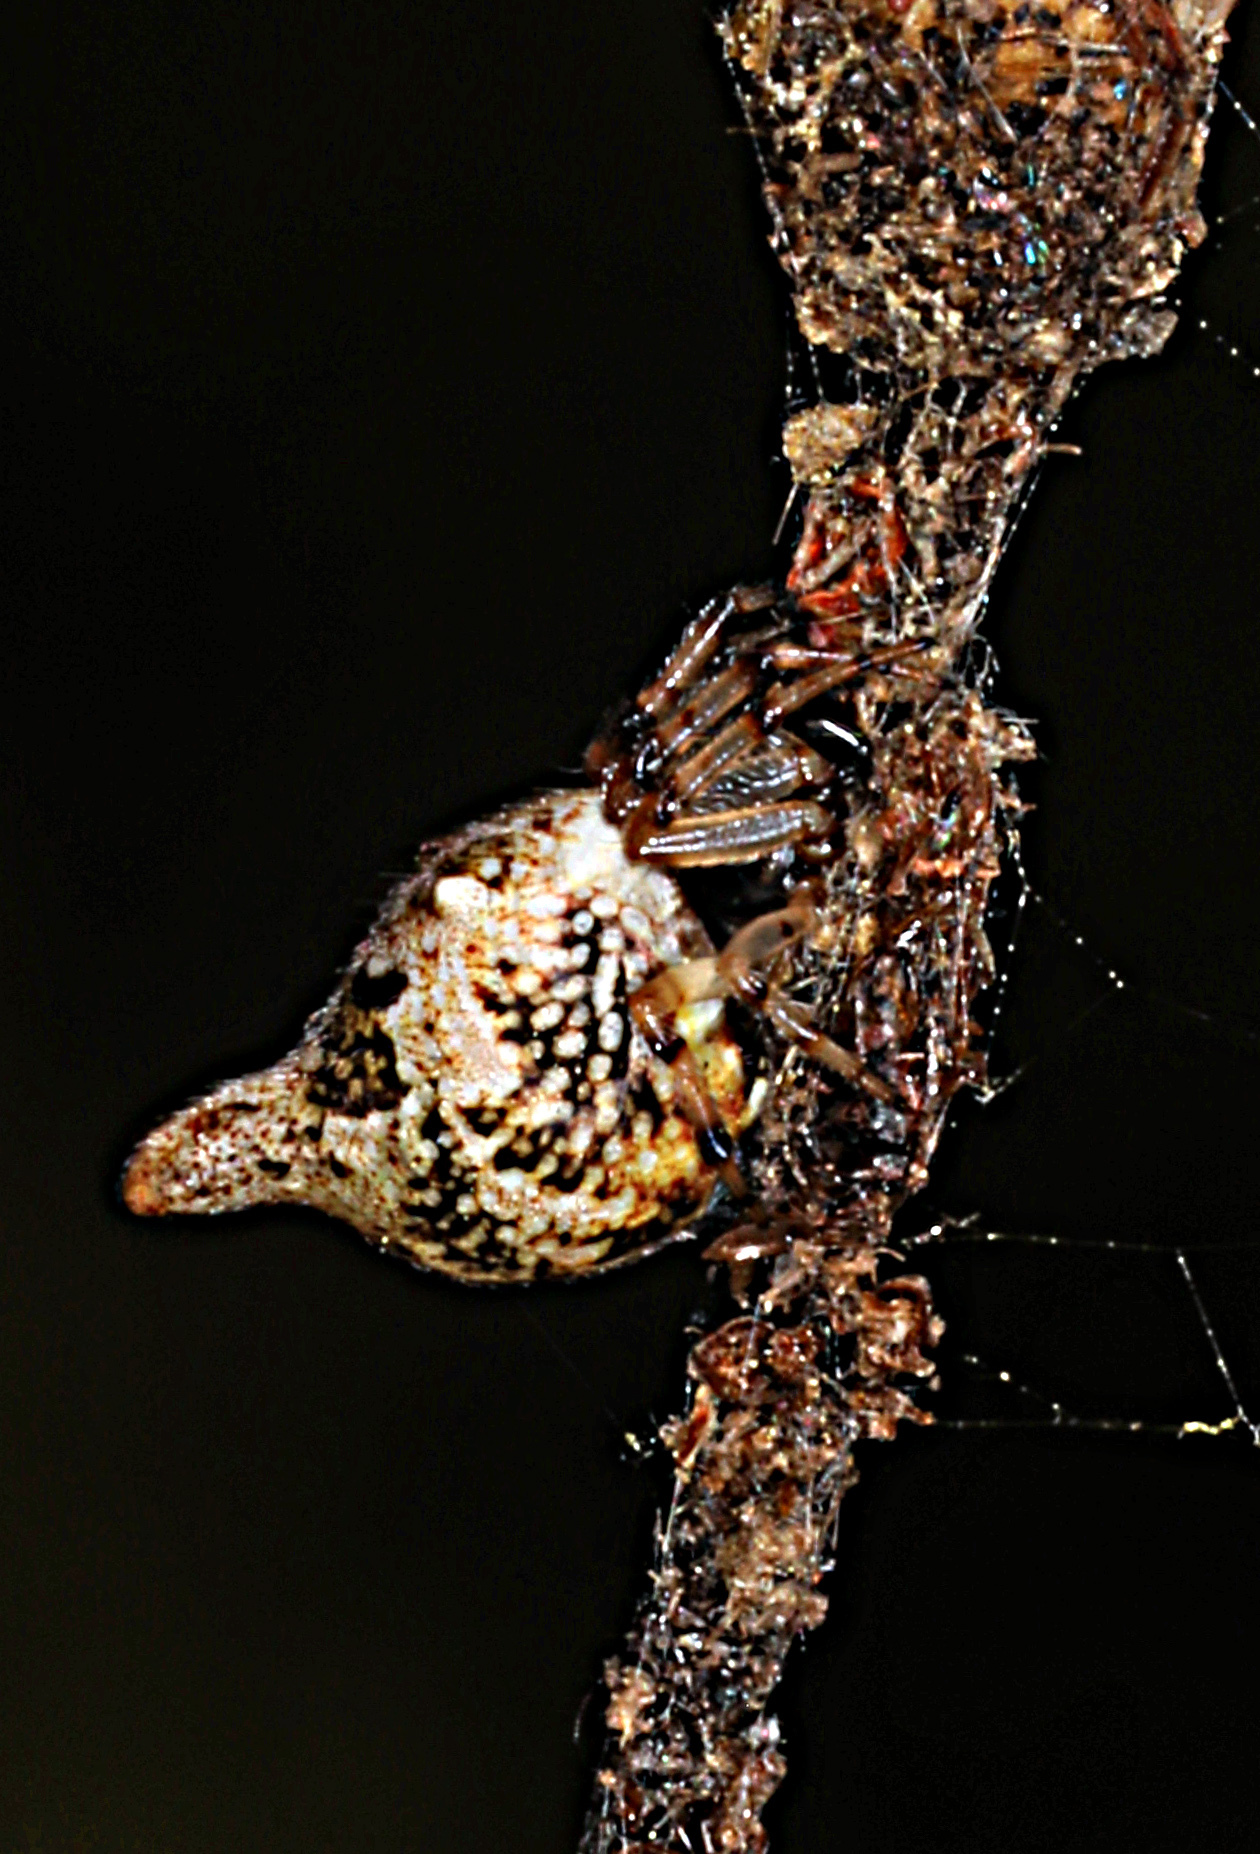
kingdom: Animalia
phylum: Arthropoda
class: Arachnida
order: Araneae
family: Araneidae
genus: Cyclosa
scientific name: Cyclosa turbinata
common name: Orb weavers
